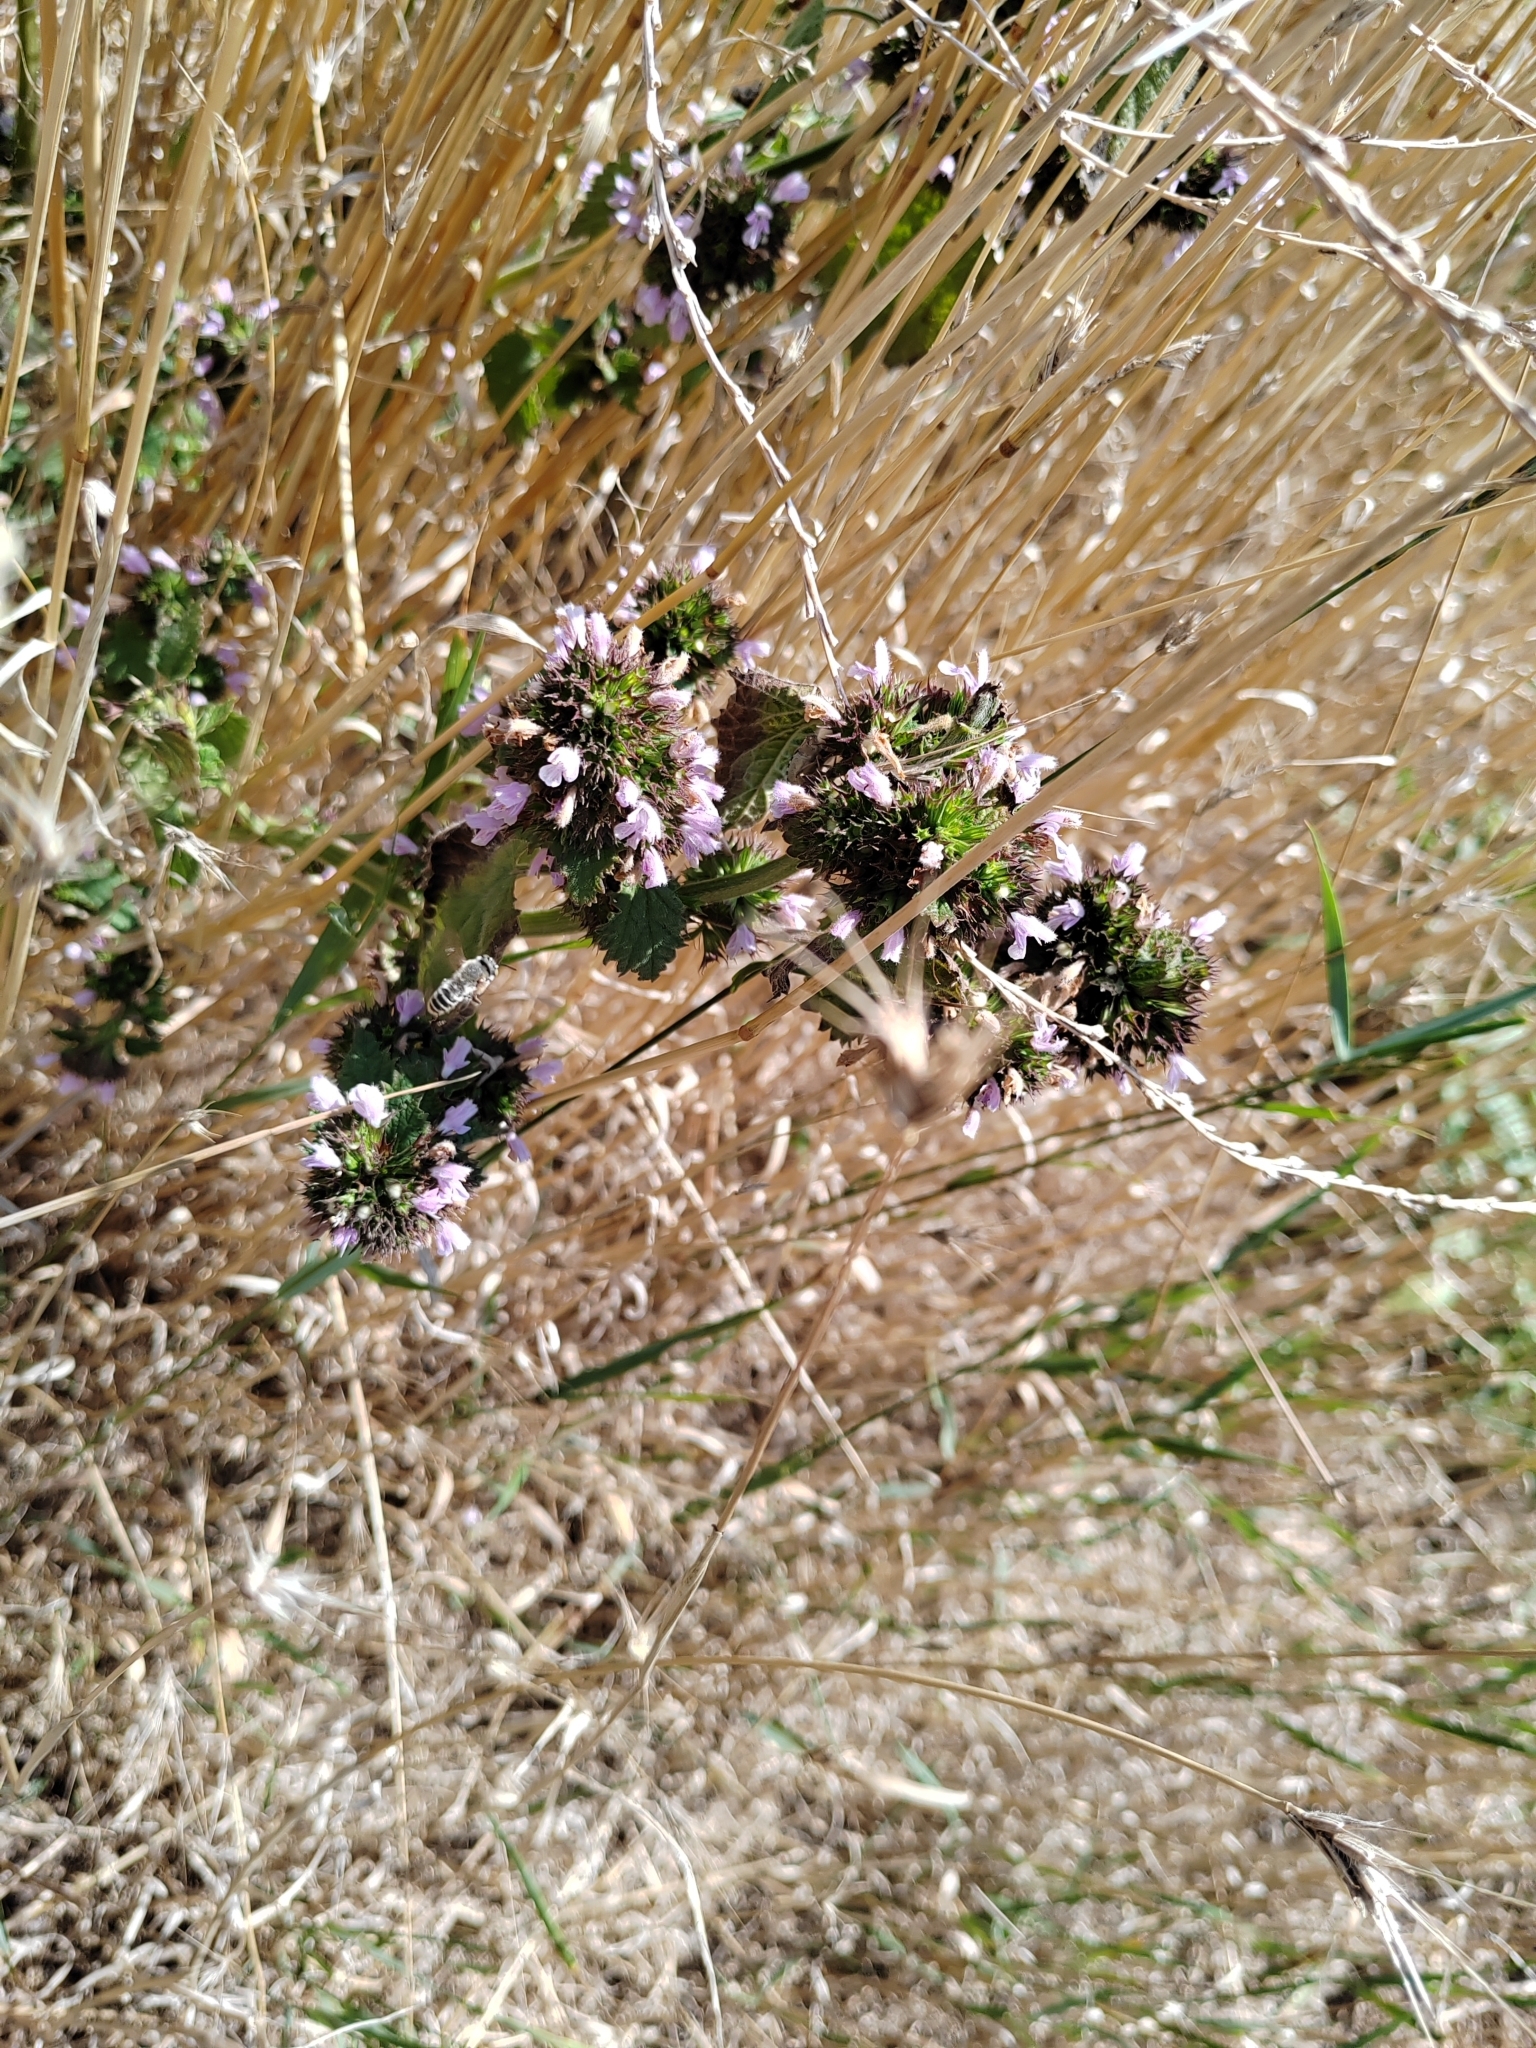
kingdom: Plantae
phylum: Tracheophyta
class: Magnoliopsida
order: Lamiales
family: Lamiaceae
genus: Ballota
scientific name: Ballota nigra
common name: Black horehound
